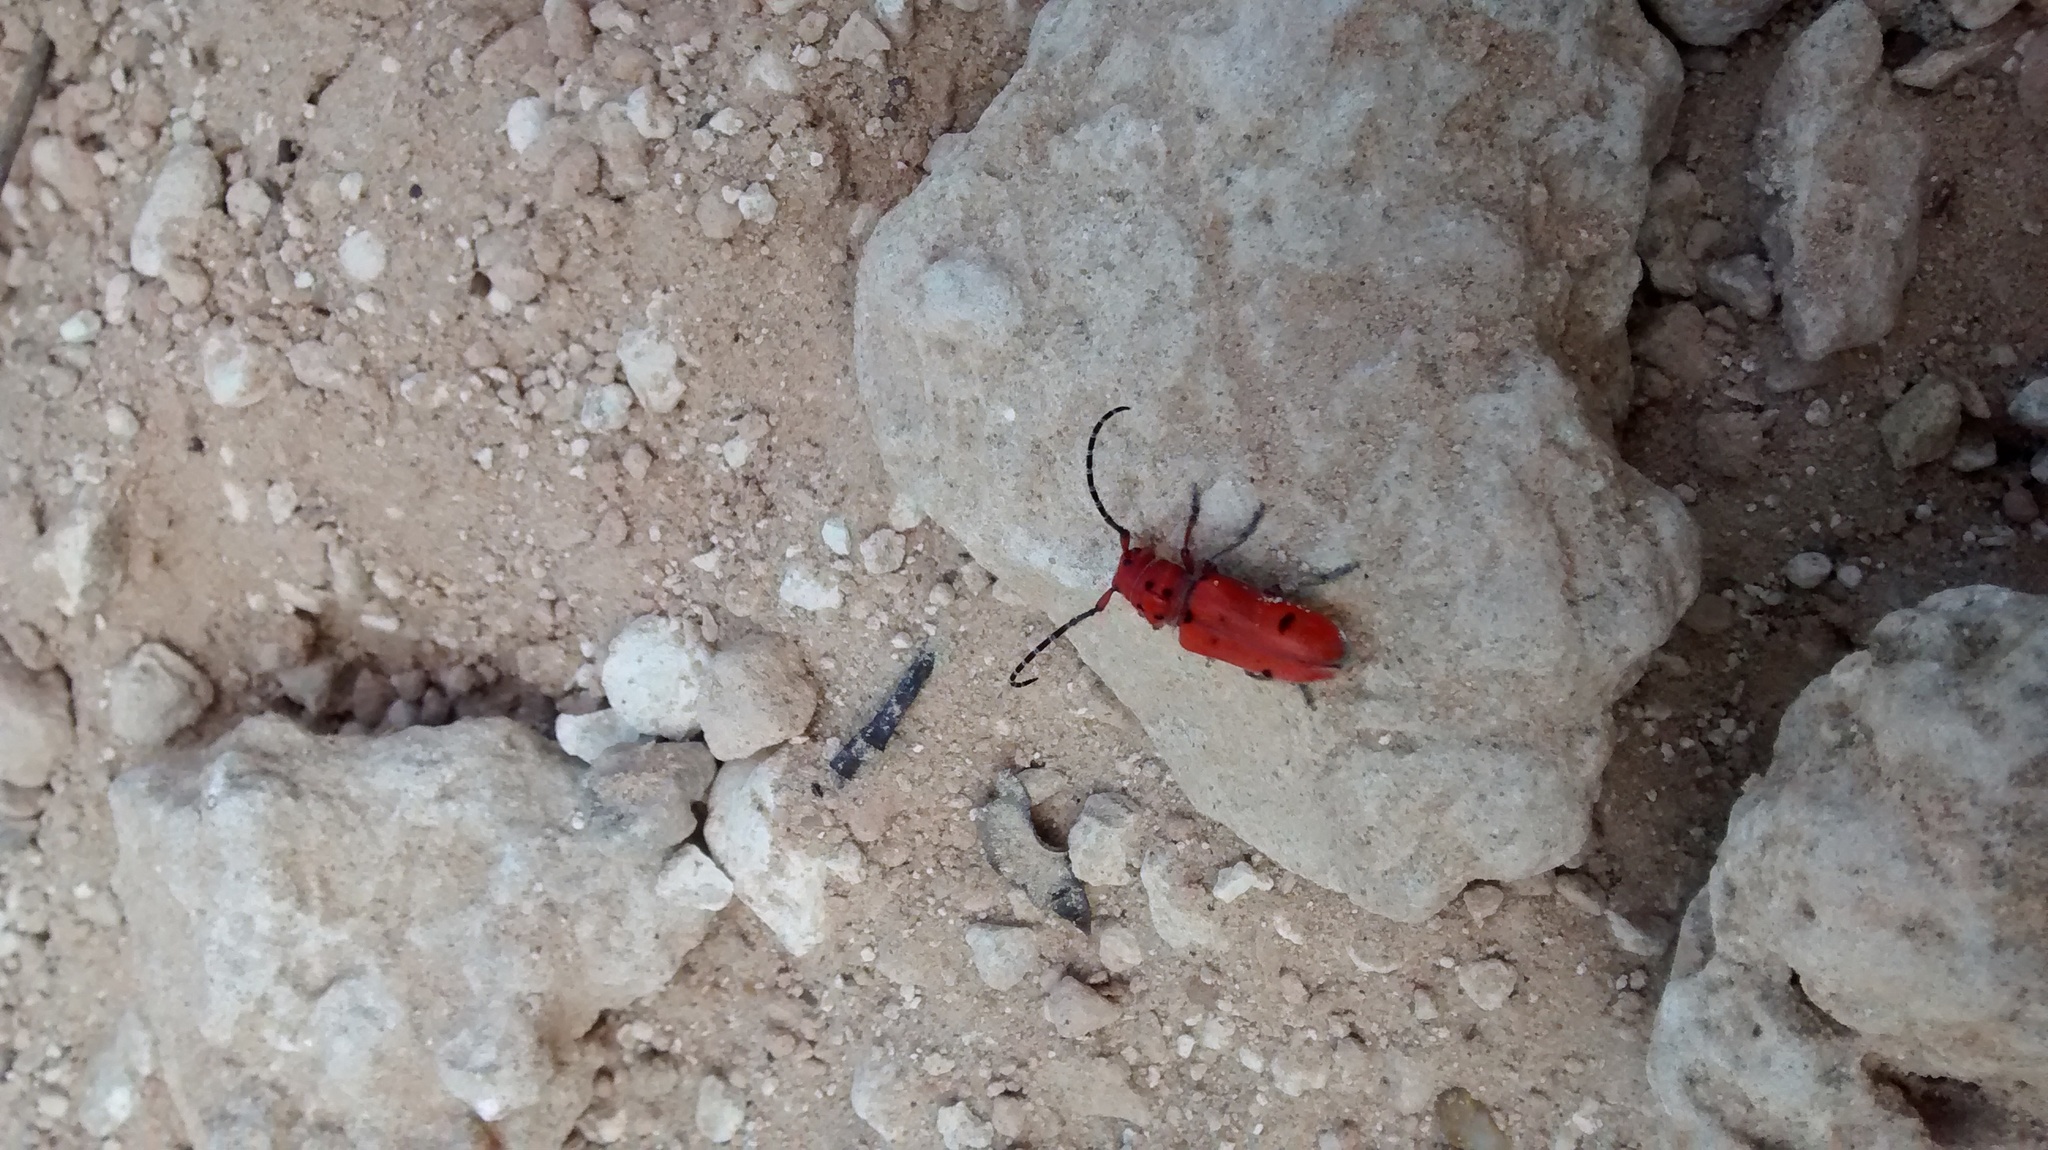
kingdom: Animalia
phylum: Arthropoda
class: Insecta
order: Coleoptera
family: Cerambycidae
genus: Tetraopes
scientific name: Tetraopes femoratus
